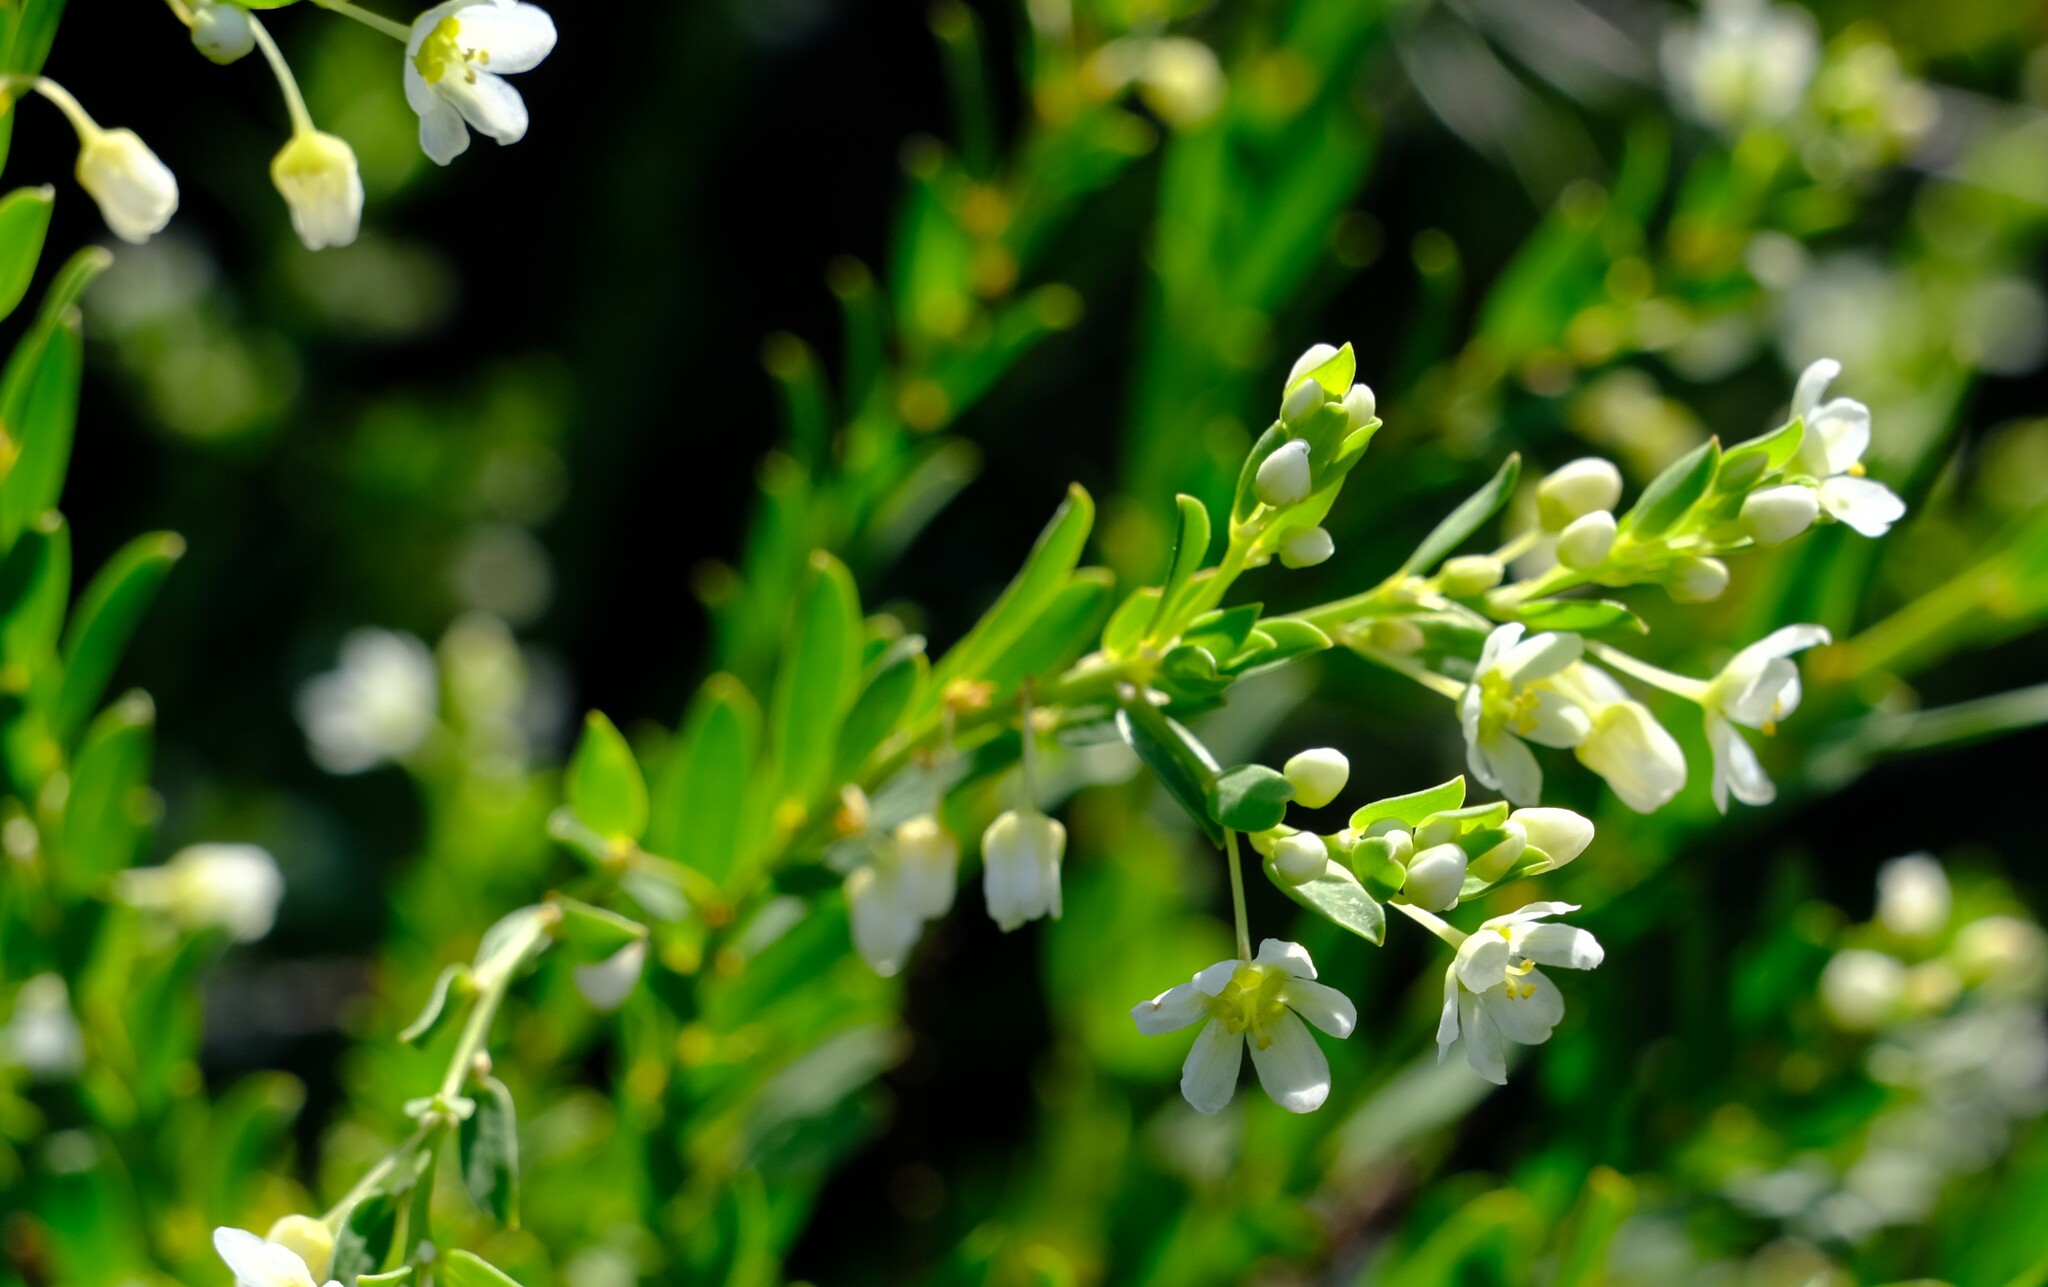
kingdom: Plantae
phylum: Tracheophyta
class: Magnoliopsida
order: Malpighiales
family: Phyllanthaceae
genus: Phyllanthus
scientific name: Phyllanthus calycinus
